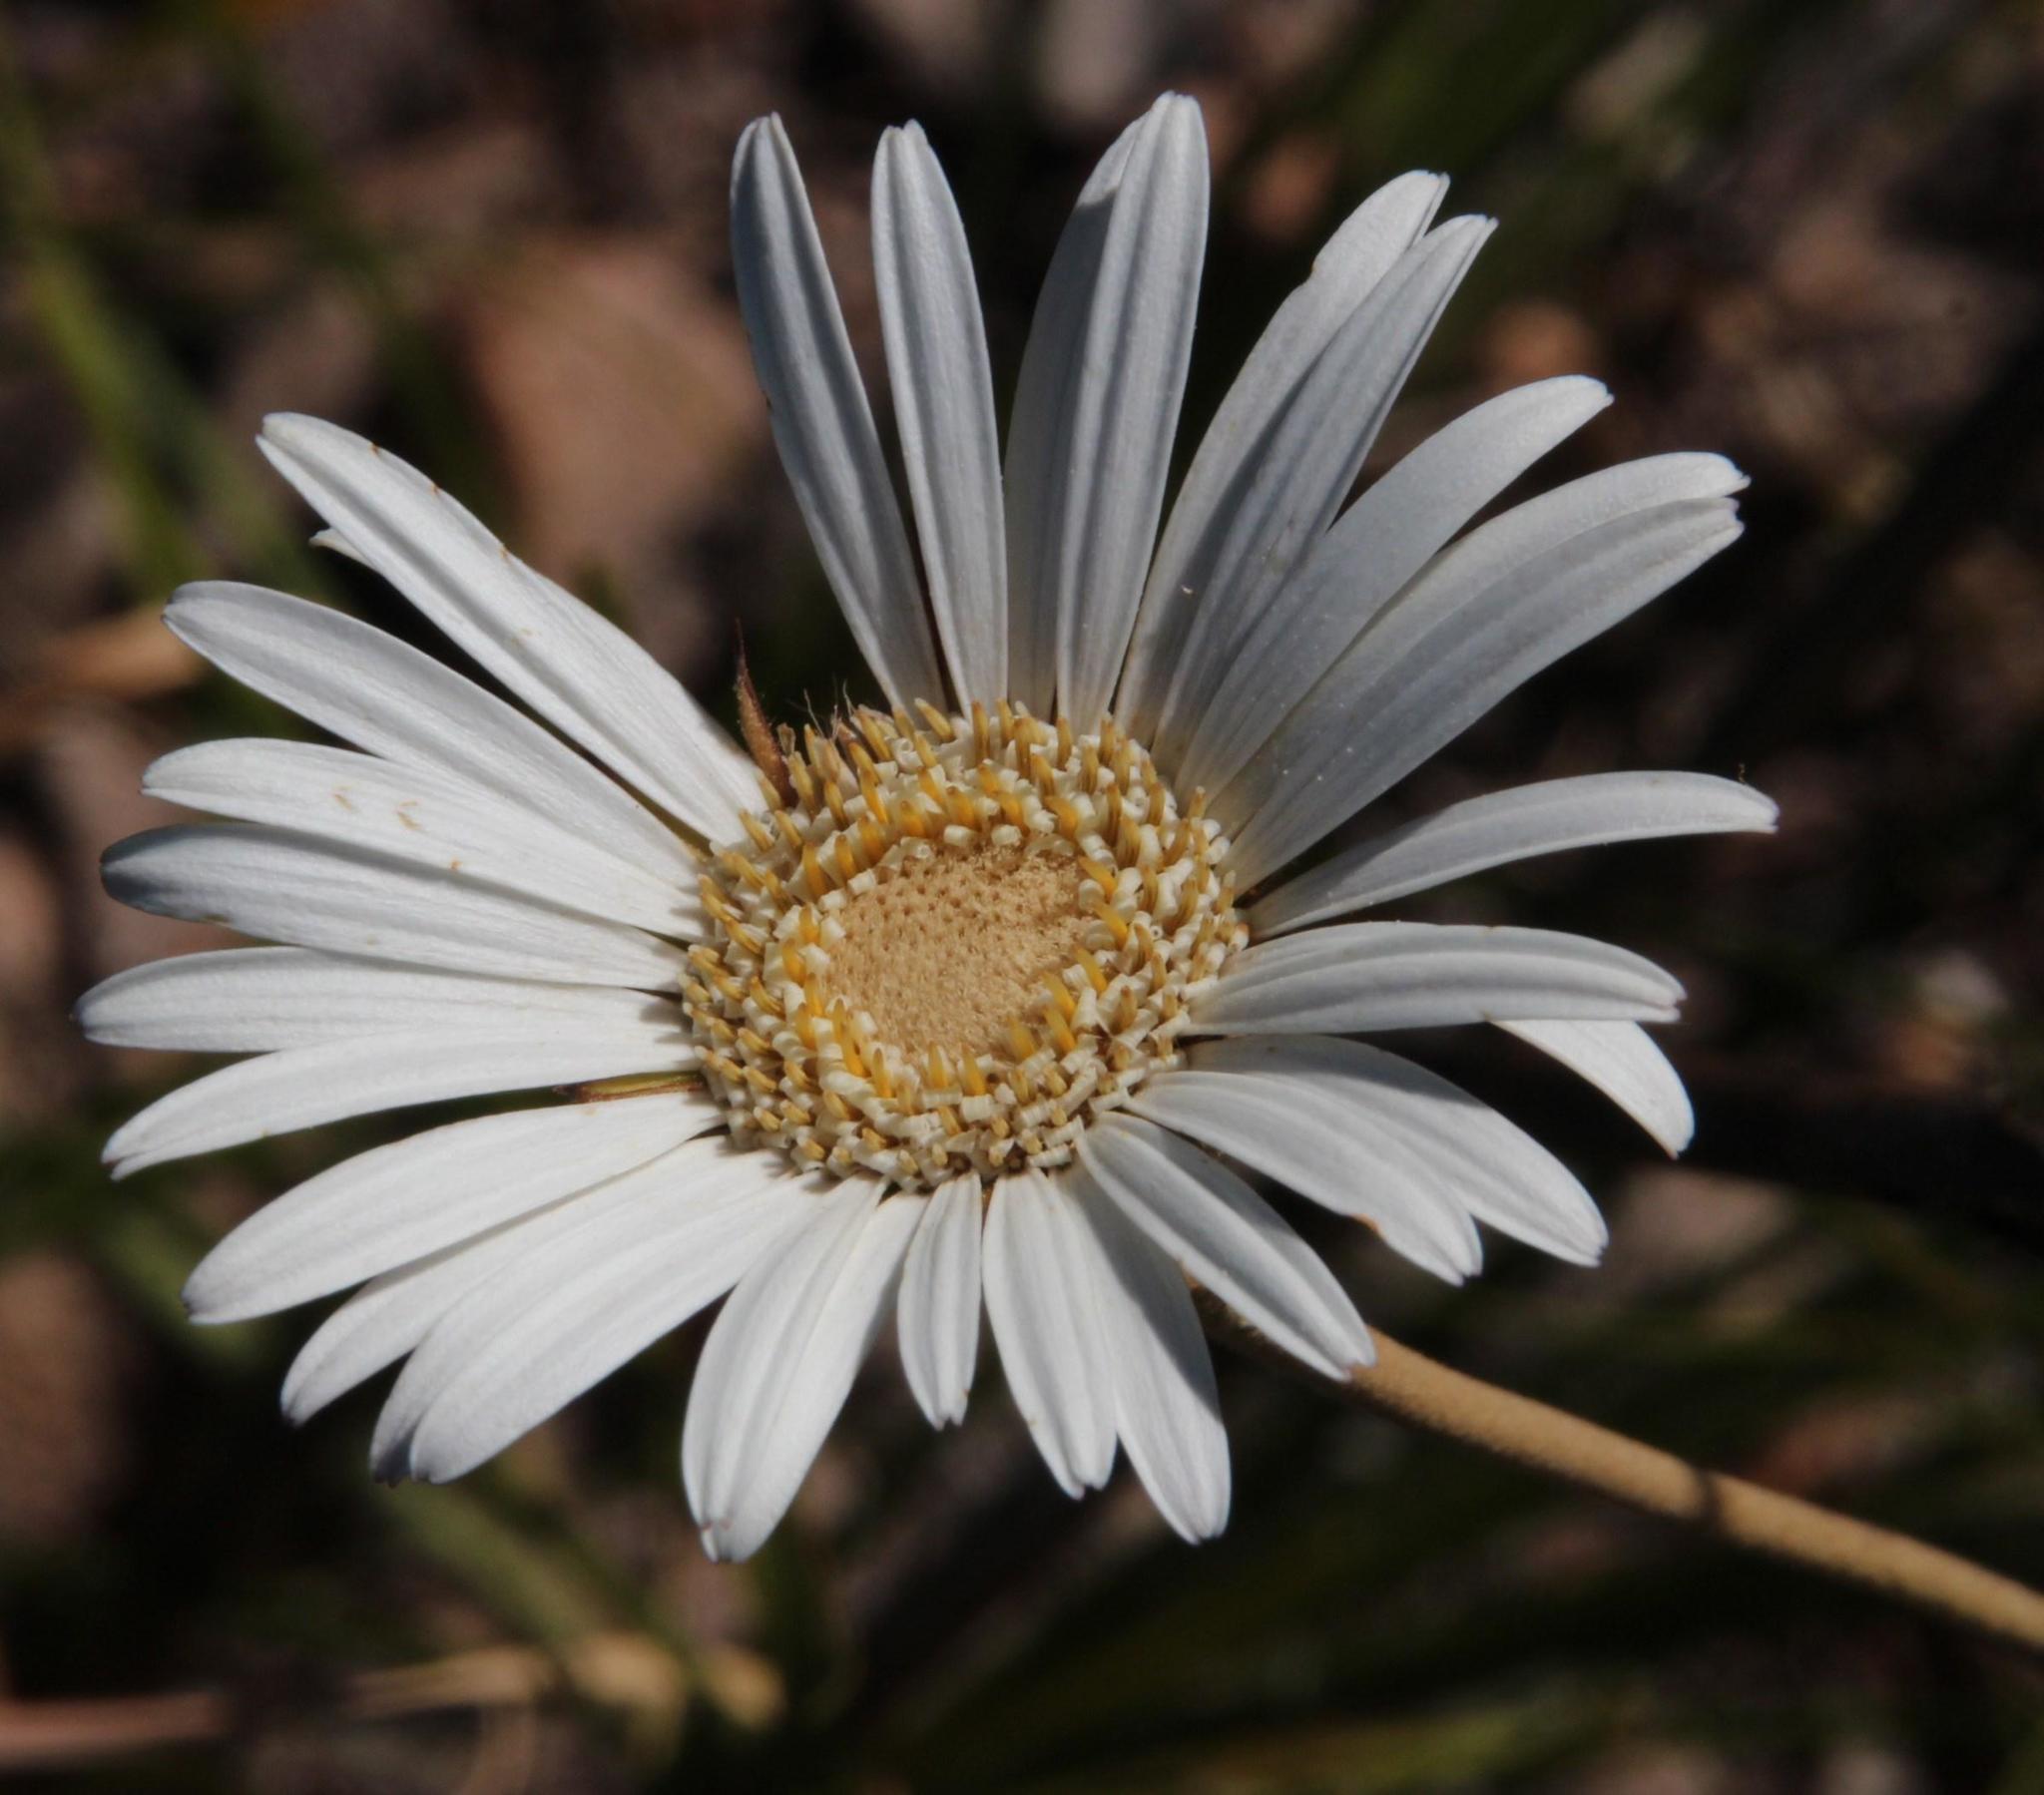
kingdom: Plantae
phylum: Tracheophyta
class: Magnoliopsida
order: Asterales
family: Asteraceae
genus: Gerbera
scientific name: Gerbera tomentosa
